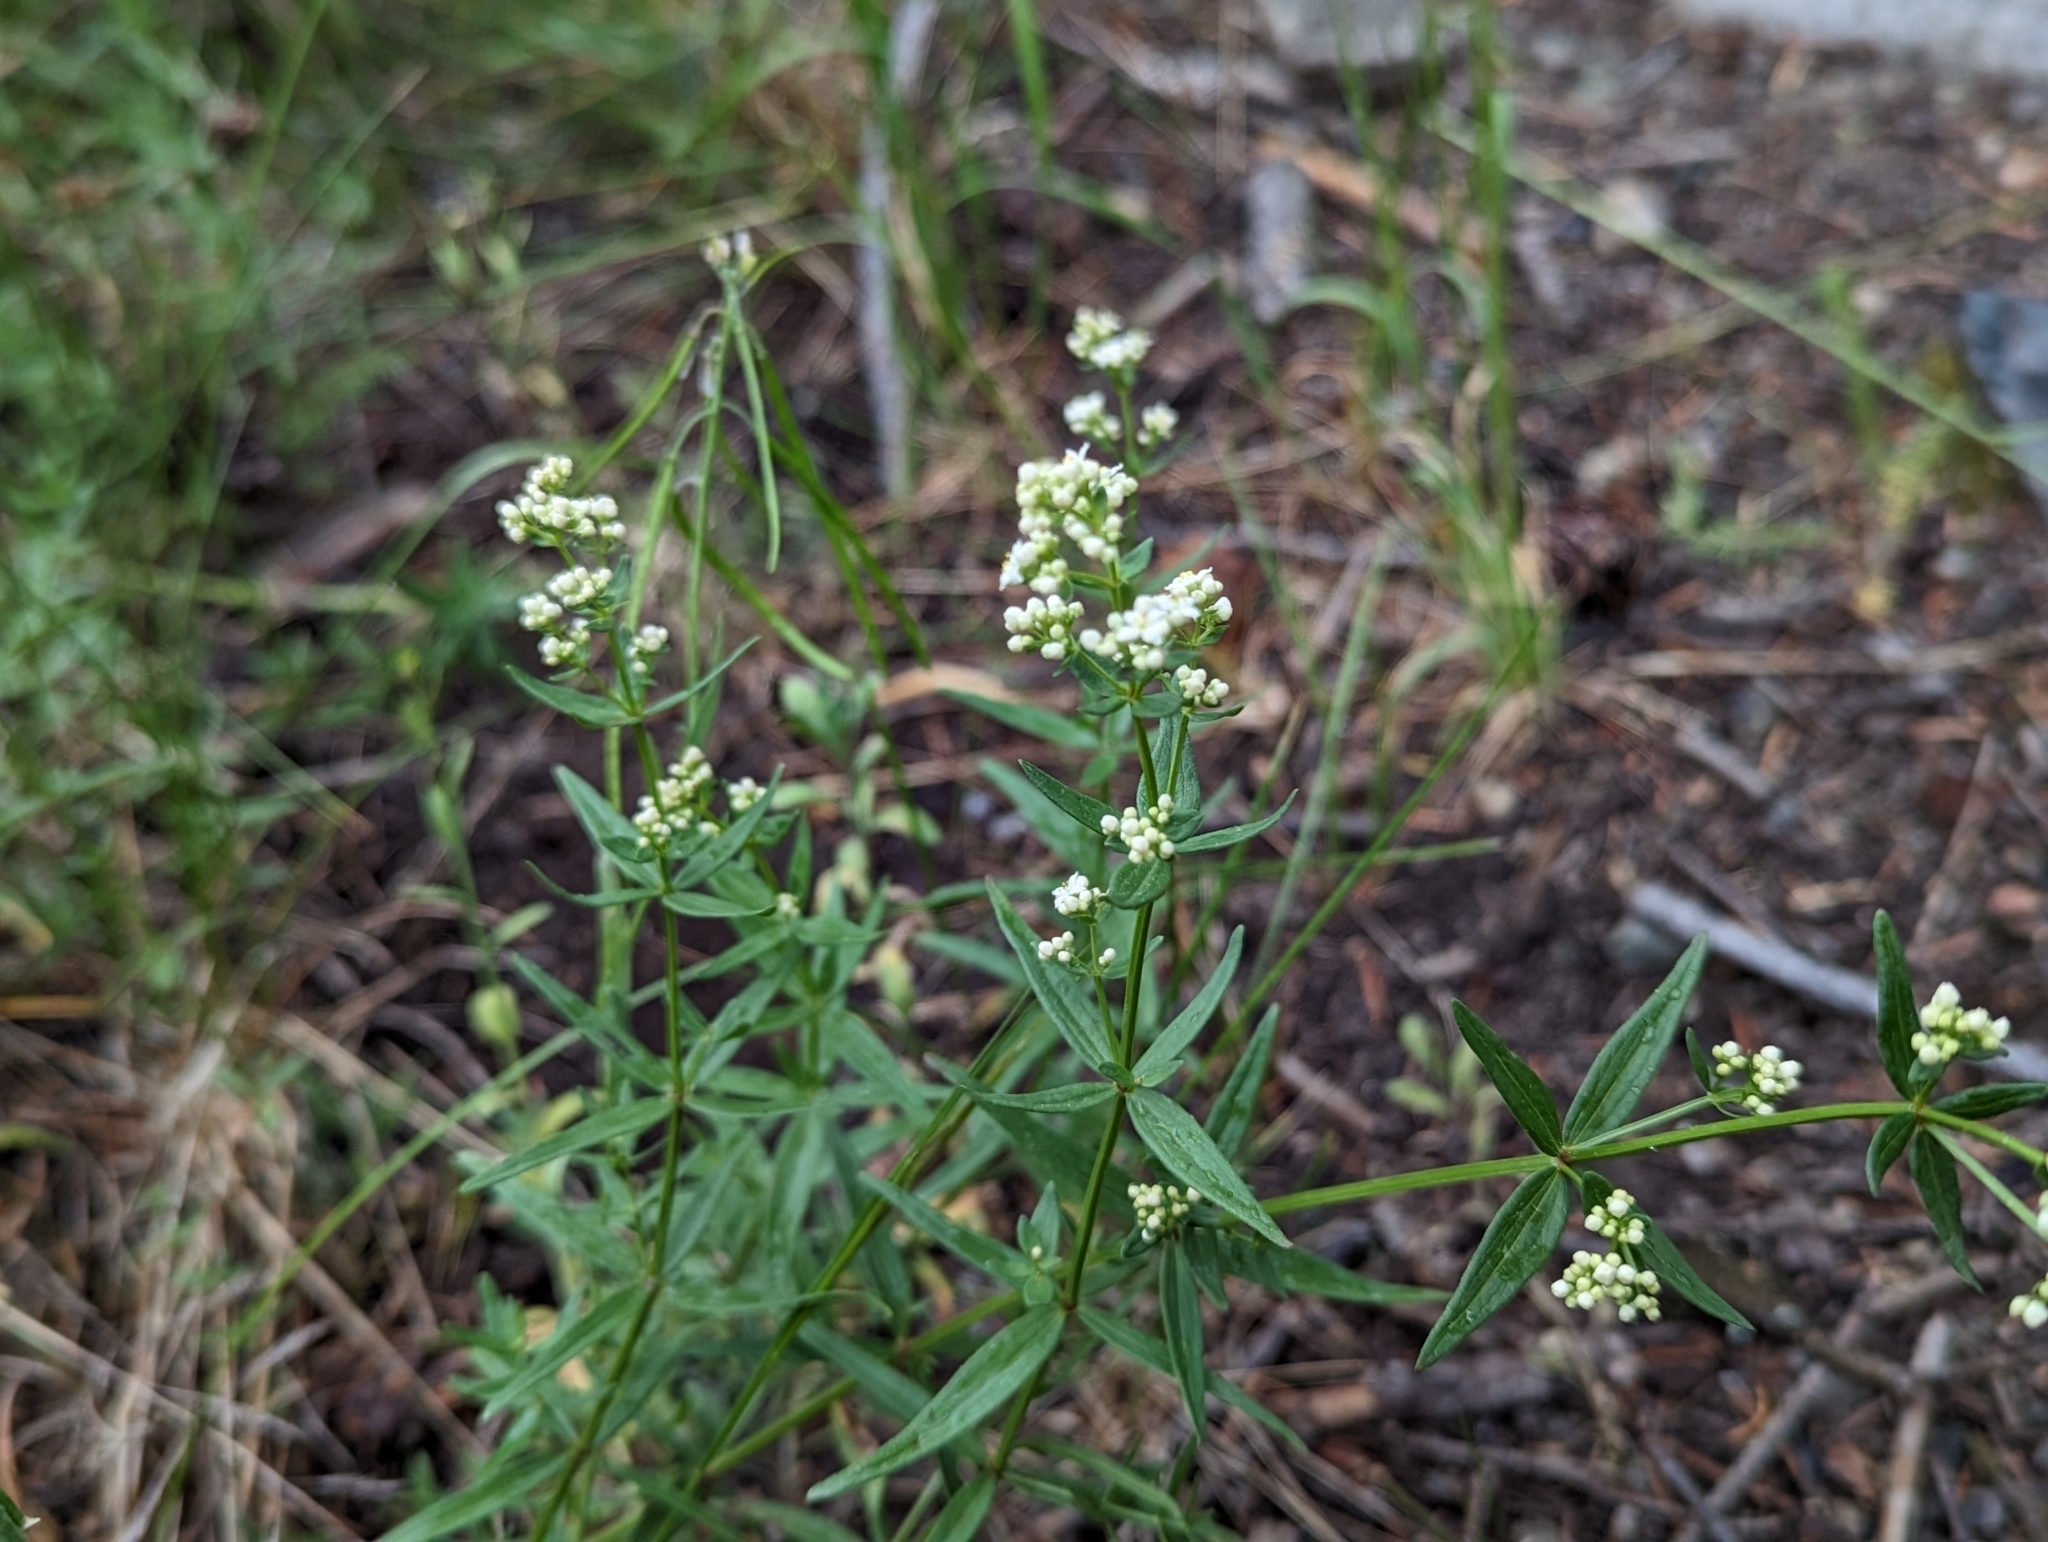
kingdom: Plantae
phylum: Tracheophyta
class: Magnoliopsida
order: Gentianales
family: Rubiaceae
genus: Galium
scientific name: Galium boreale
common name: Northern bedstraw
